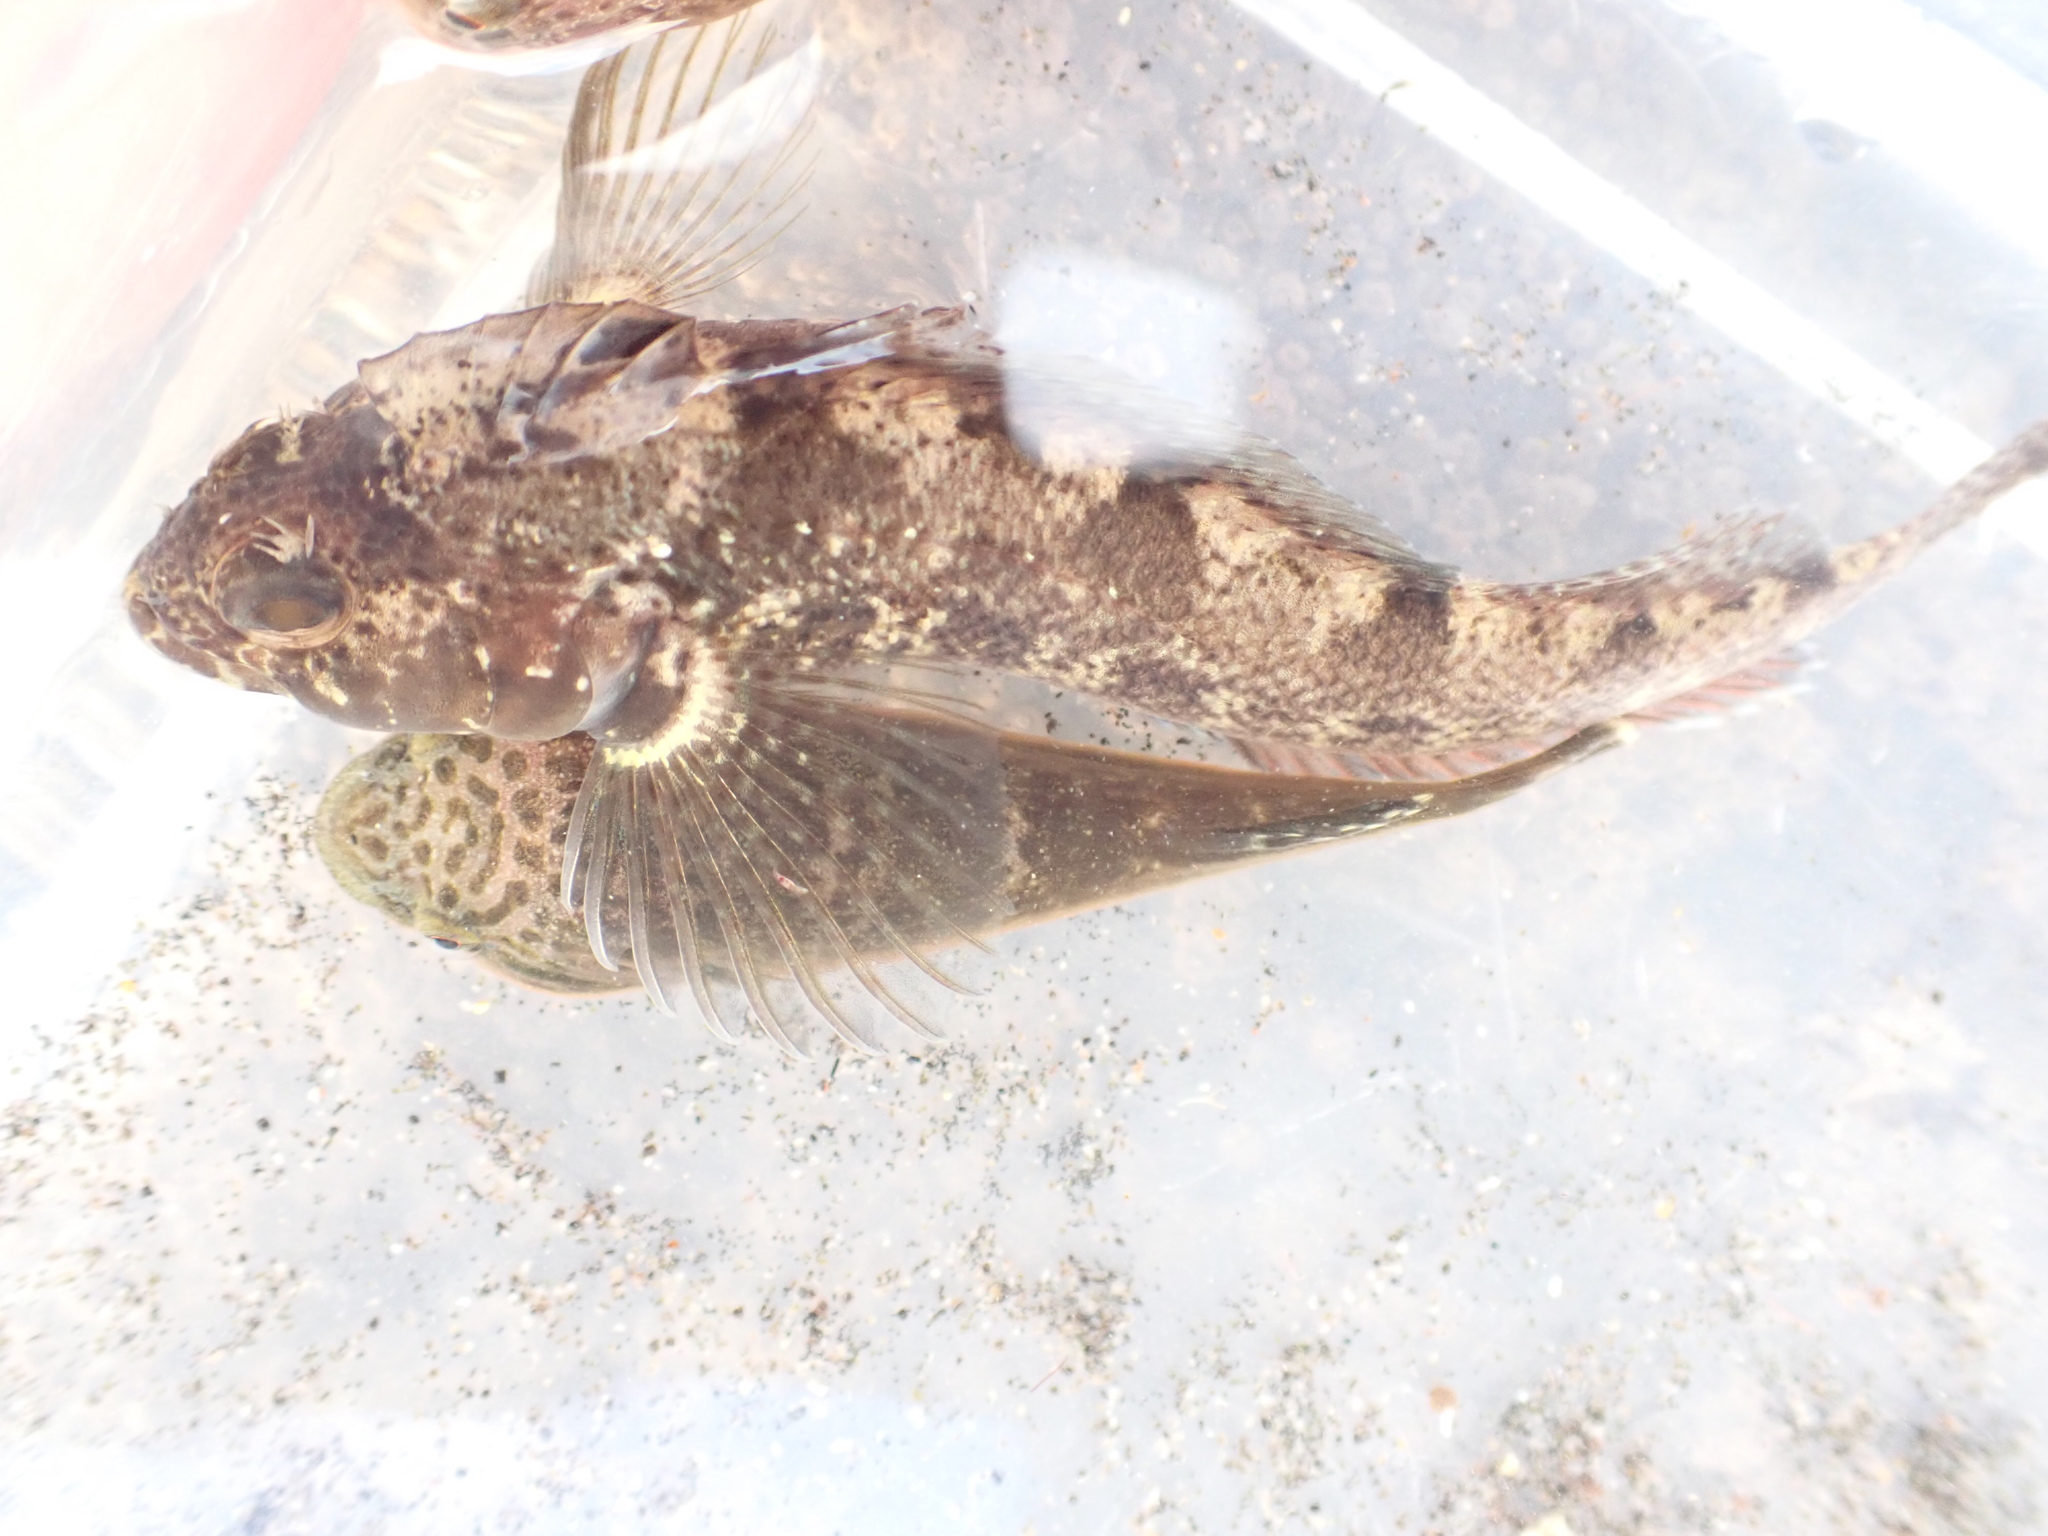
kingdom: Animalia
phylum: Chordata
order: Perciformes
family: Tripterygiidae
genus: Forsterygion
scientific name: Forsterygion capito
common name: Spotted robust triplefin
